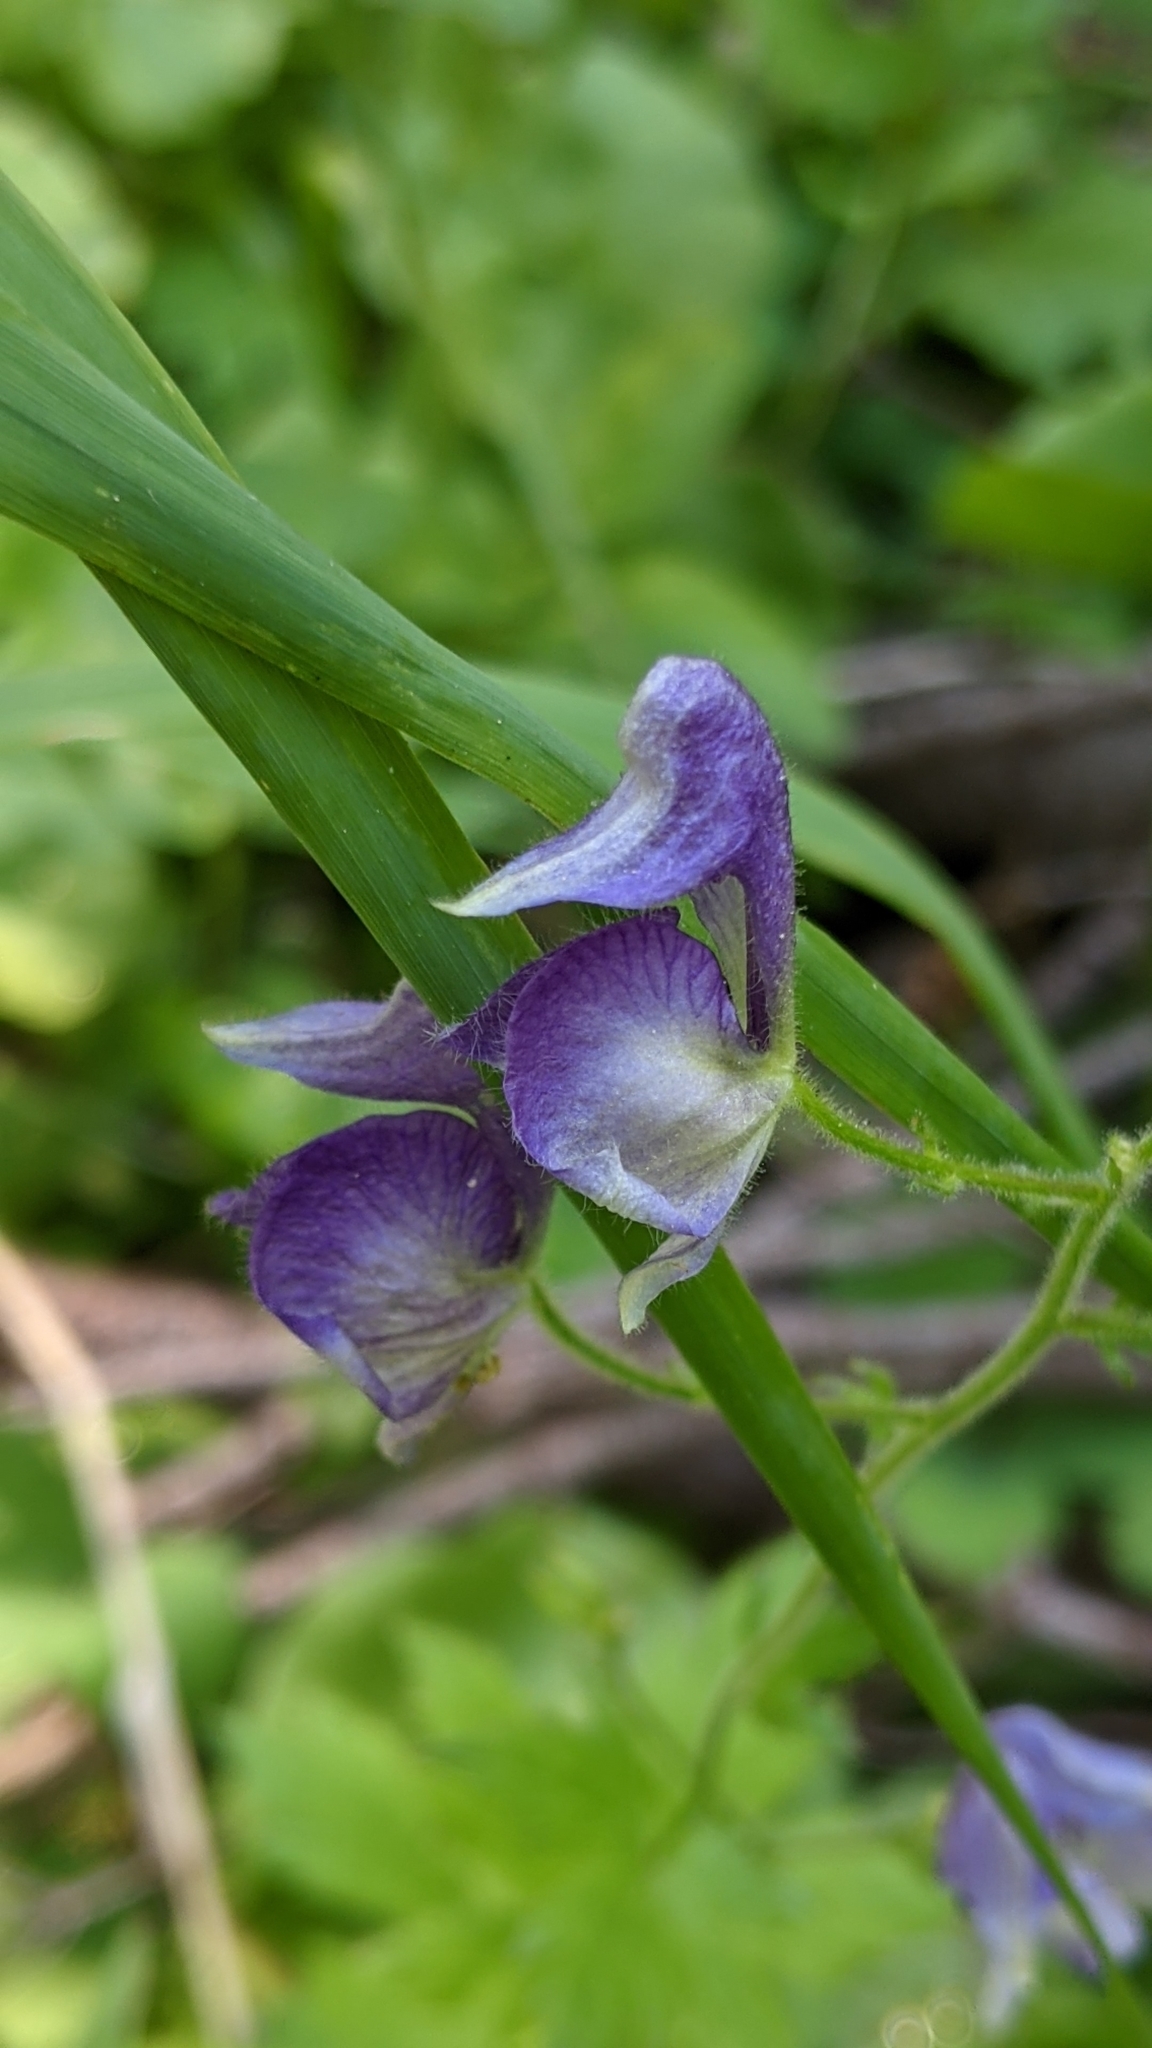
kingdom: Plantae
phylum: Tracheophyta
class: Magnoliopsida
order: Ranunculales
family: Ranunculaceae
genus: Aconitum
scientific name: Aconitum columbianum
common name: Columbia aconite
